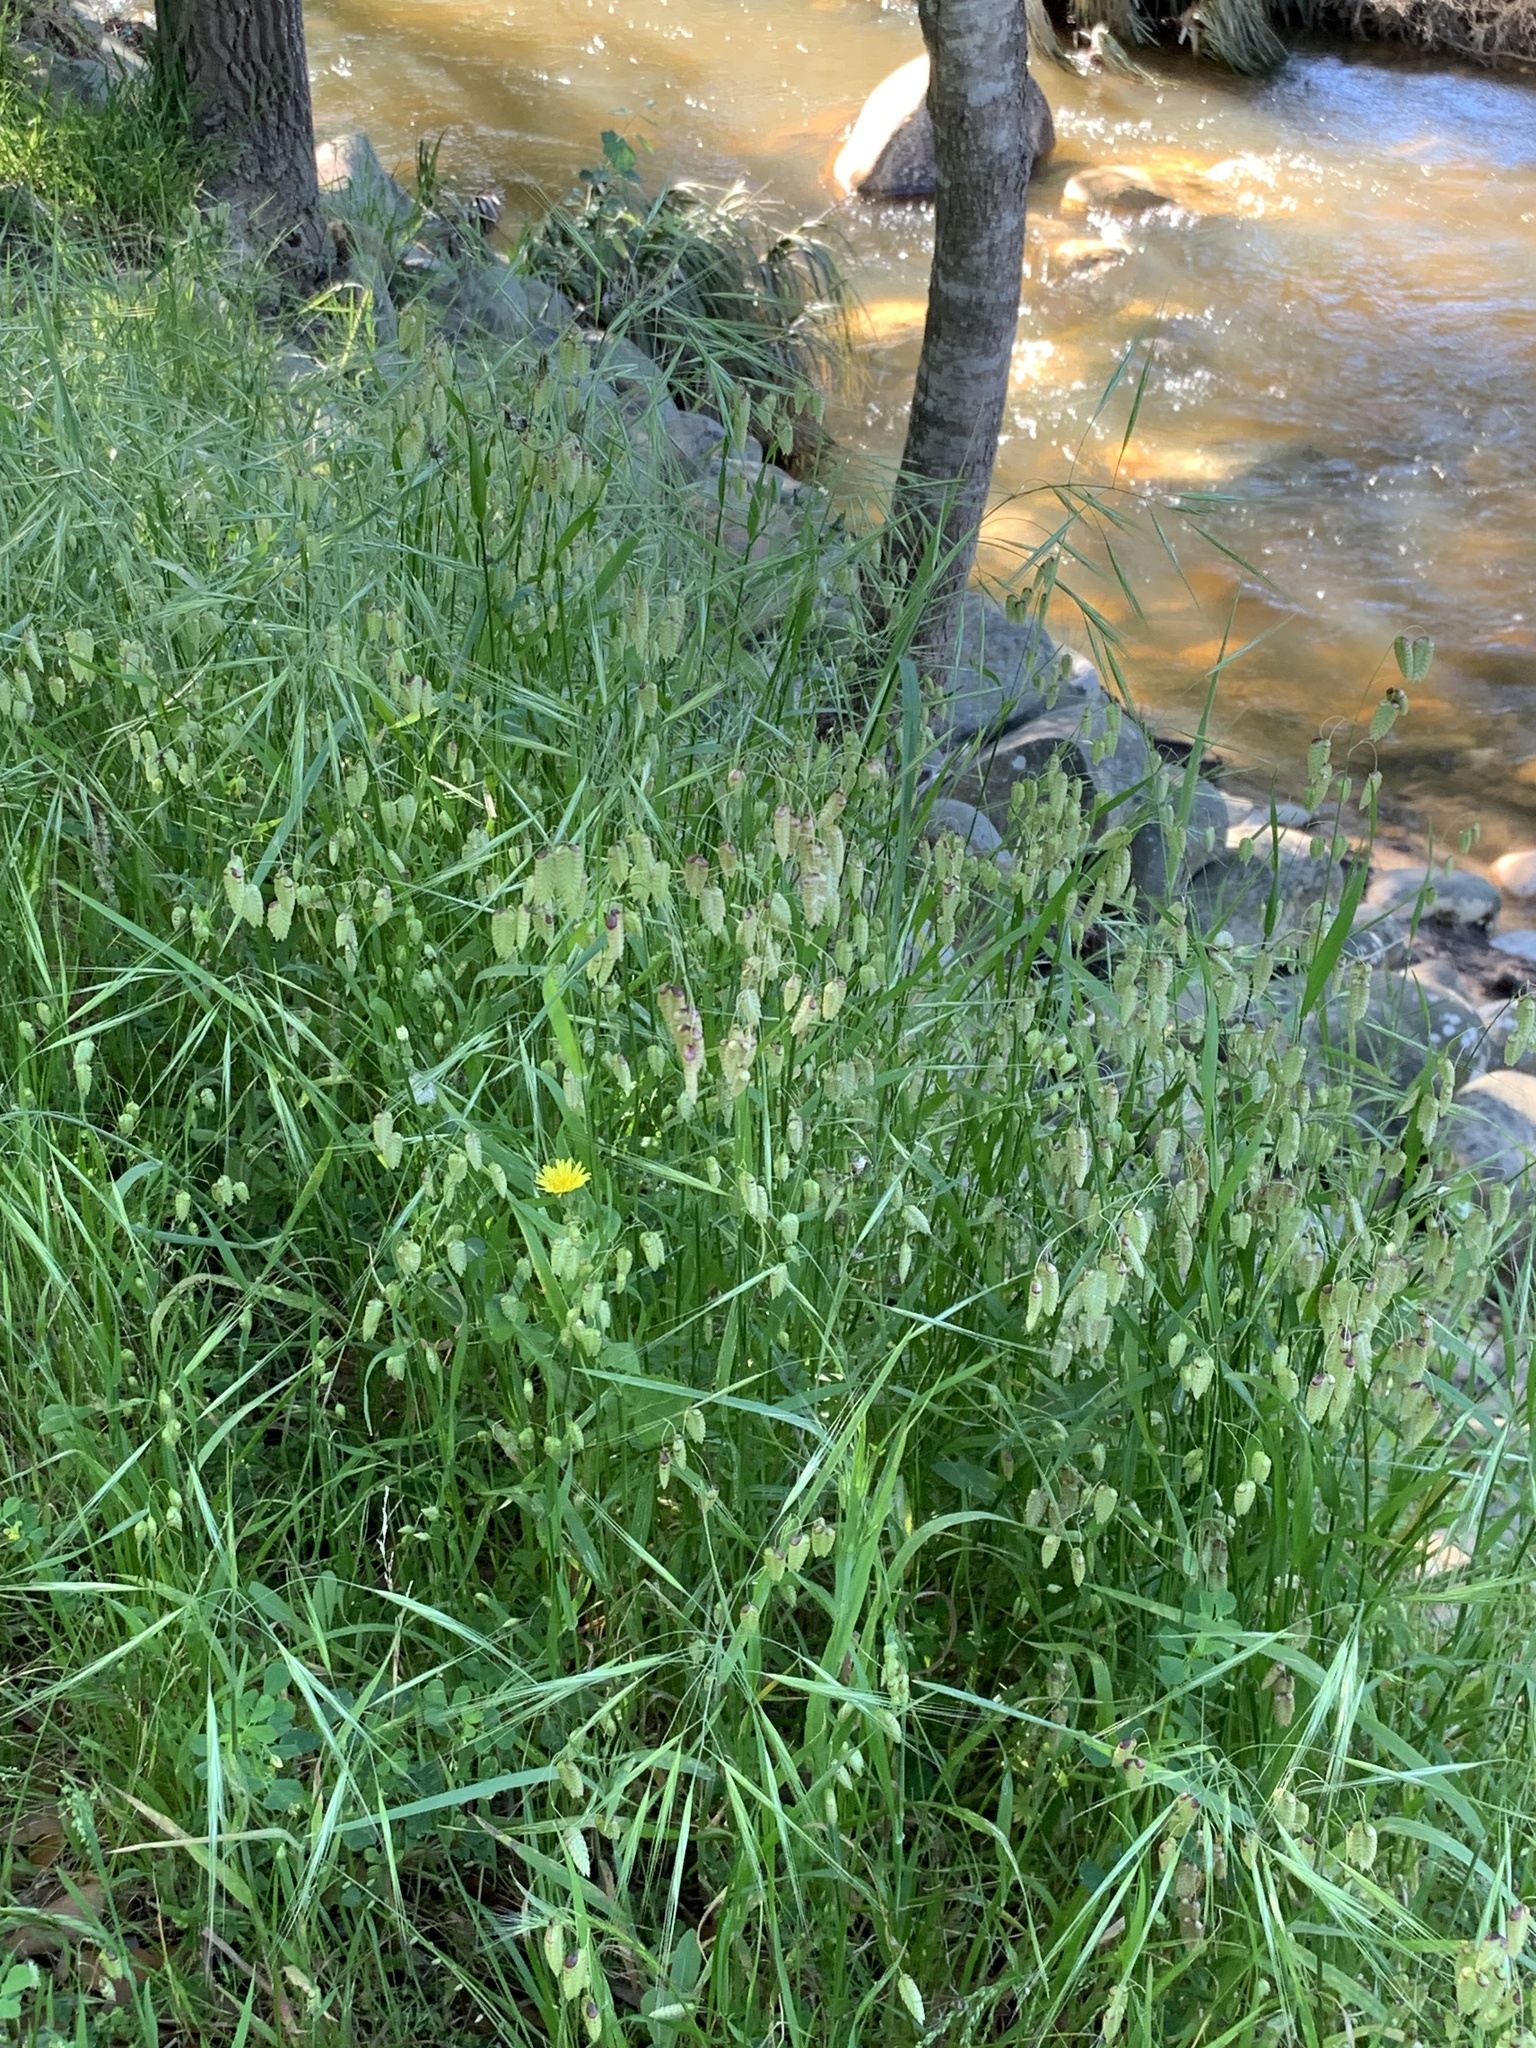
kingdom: Plantae
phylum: Tracheophyta
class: Liliopsida
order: Poales
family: Poaceae
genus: Briza
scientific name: Briza maxima
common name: Big quakinggrass
